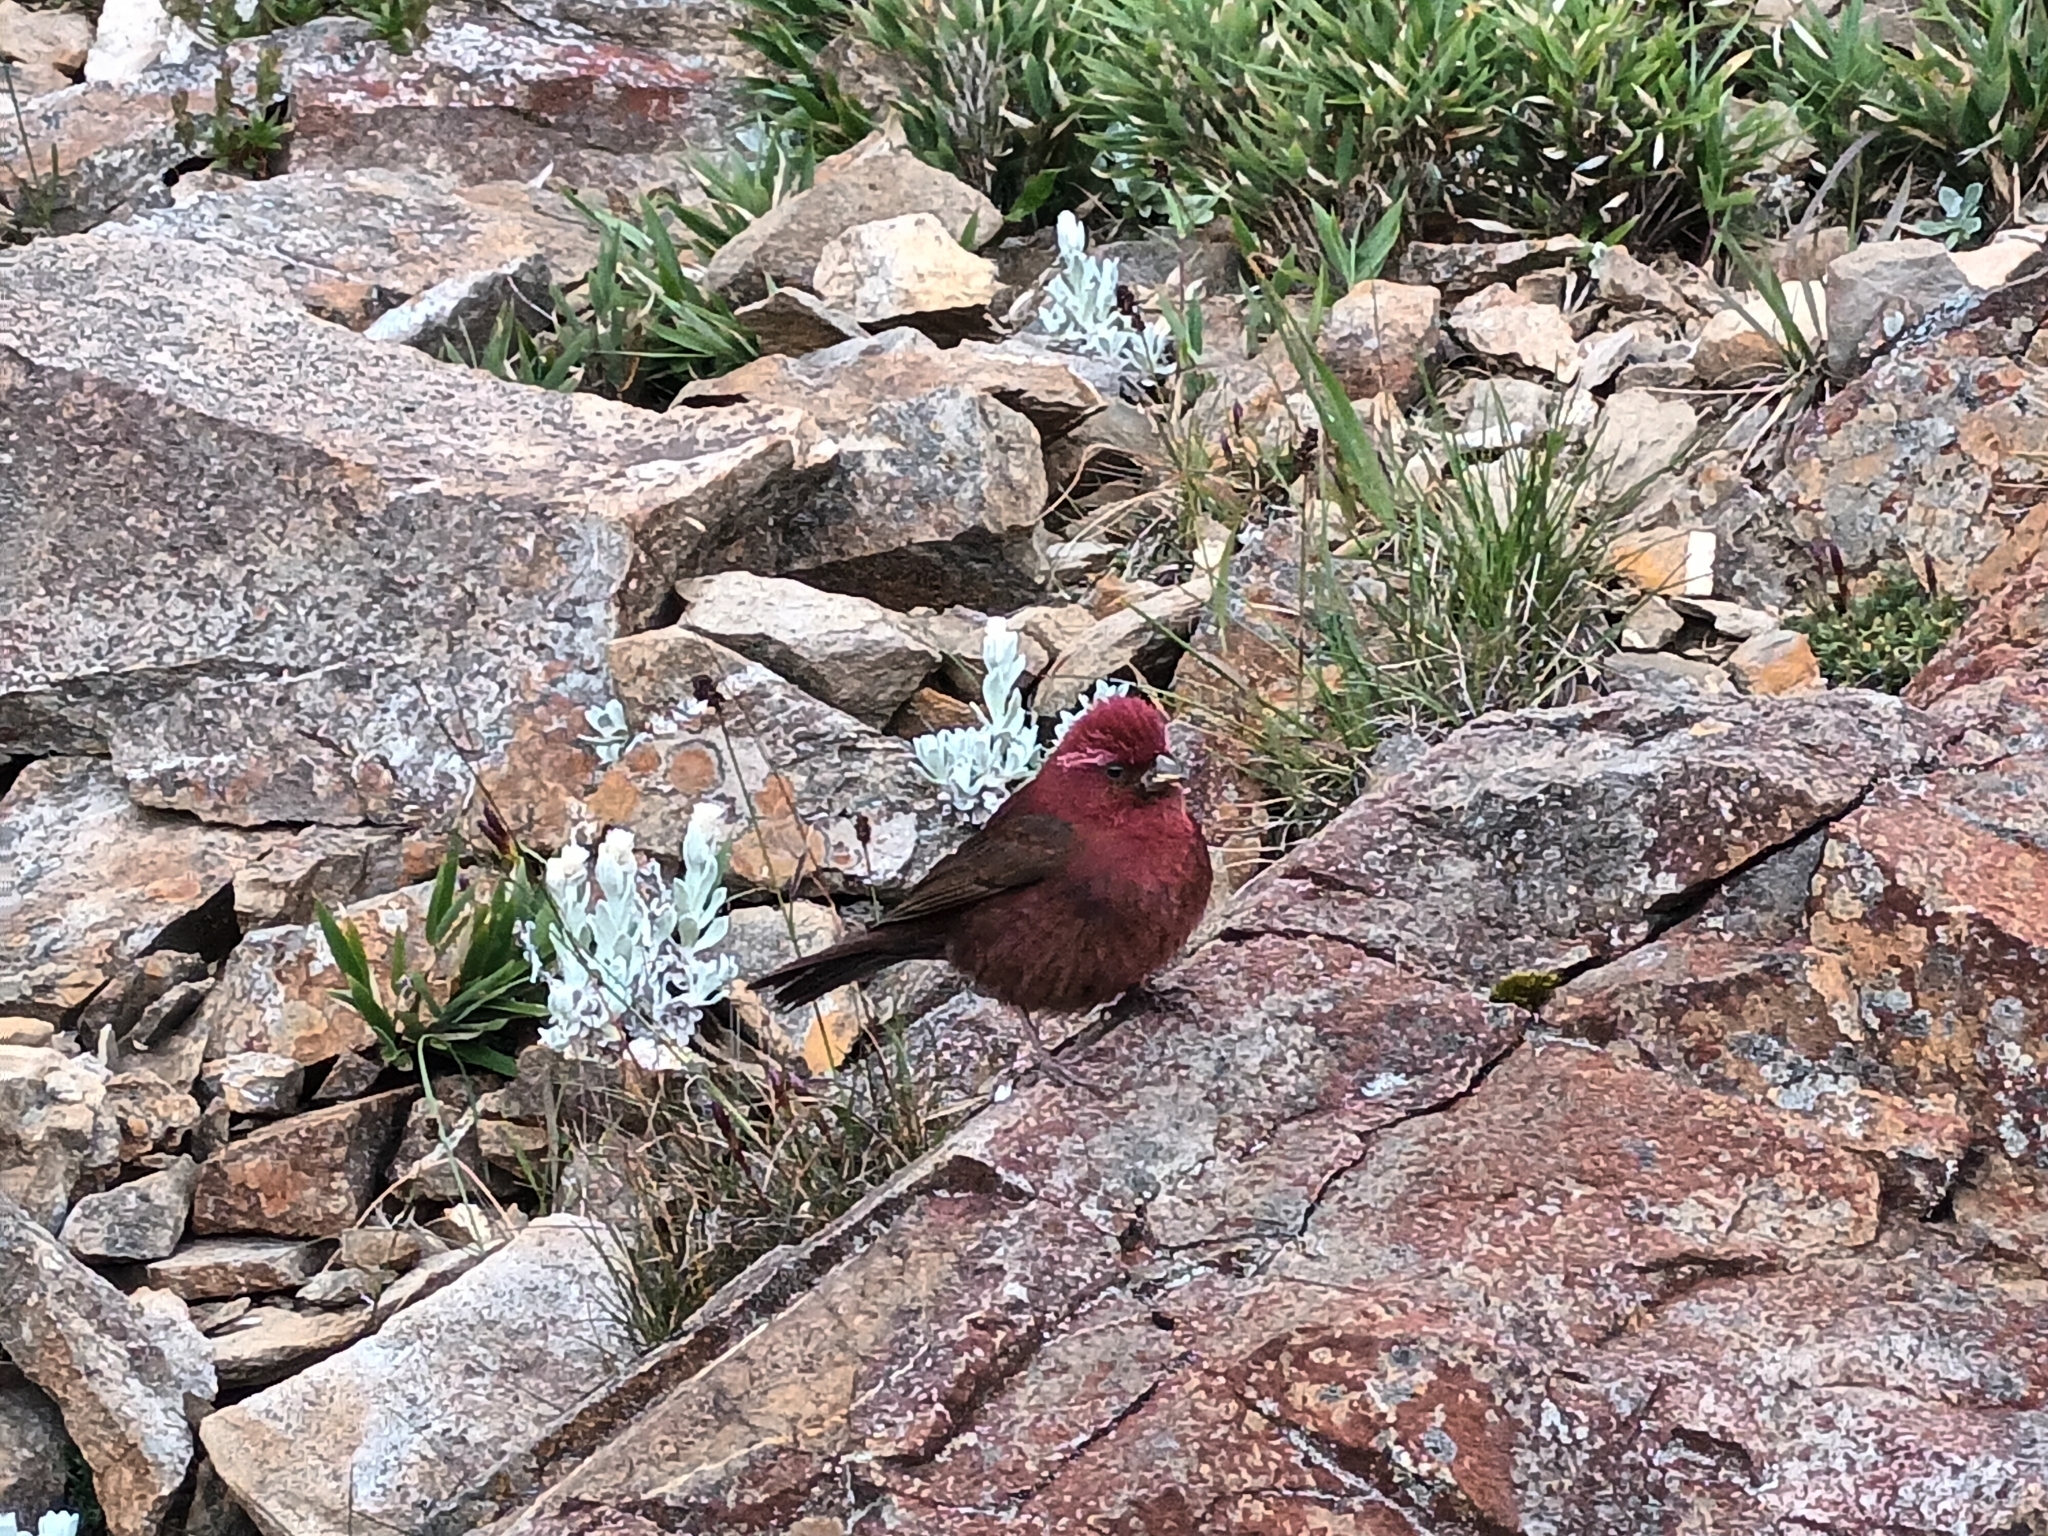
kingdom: Animalia
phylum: Chordata
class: Aves
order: Passeriformes
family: Fringillidae
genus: Carpodacus
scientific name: Carpodacus formosanus
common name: Taiwan rosefinch
